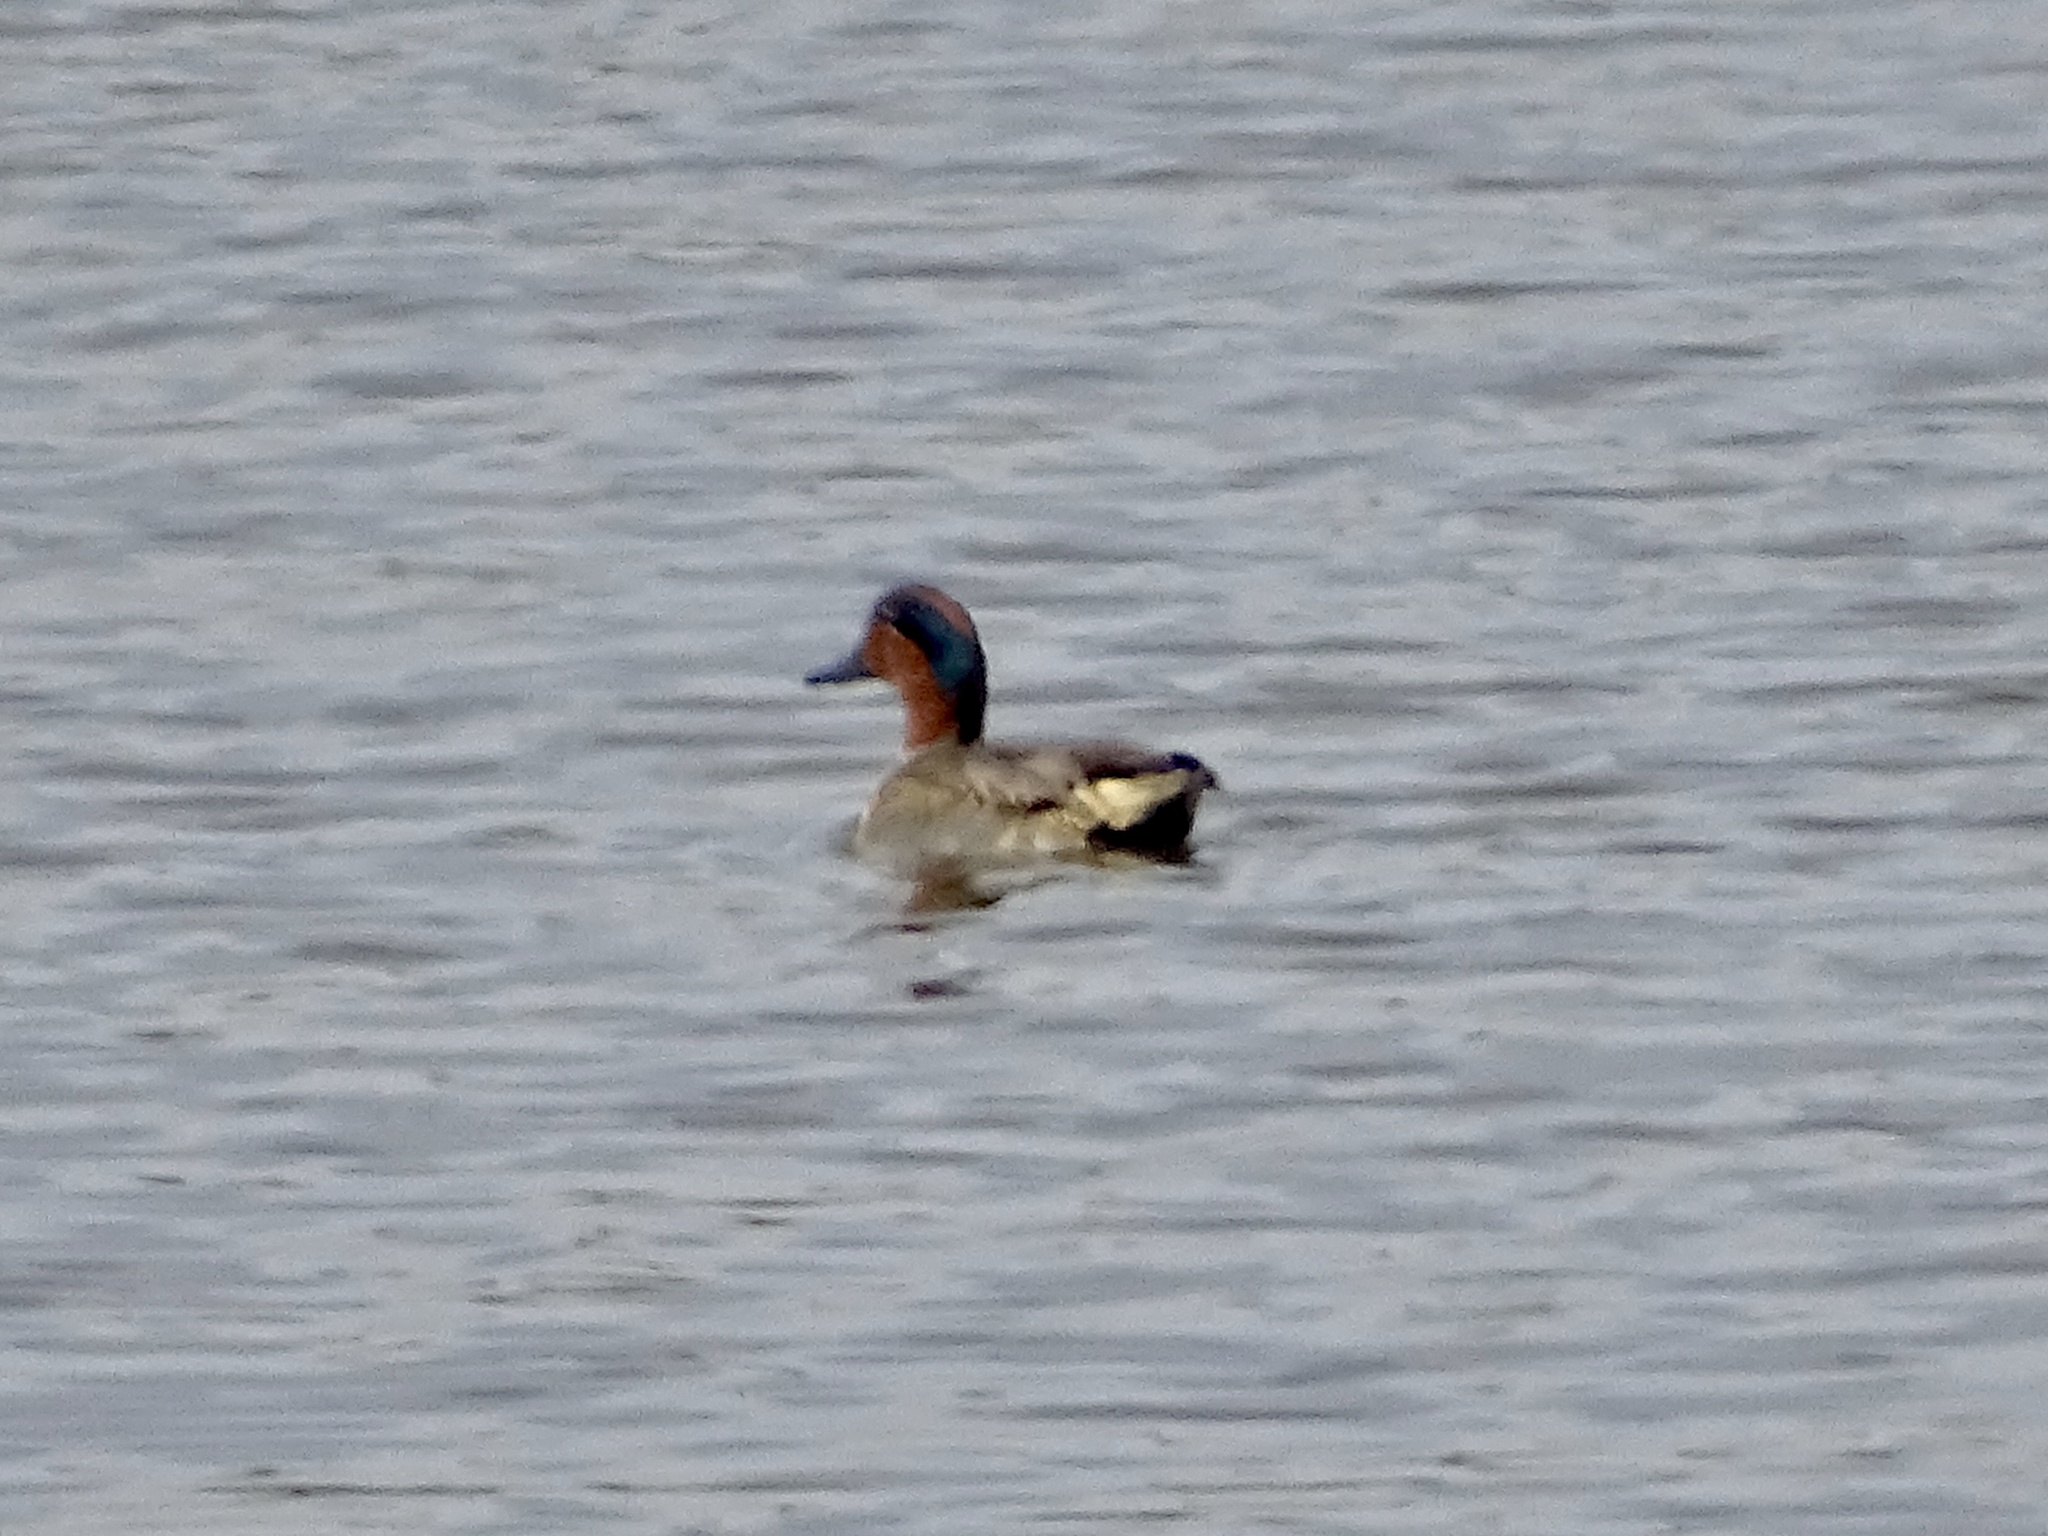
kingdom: Animalia
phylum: Chordata
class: Aves
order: Anseriformes
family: Anatidae
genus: Anas
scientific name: Anas crecca
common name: Eurasian teal
